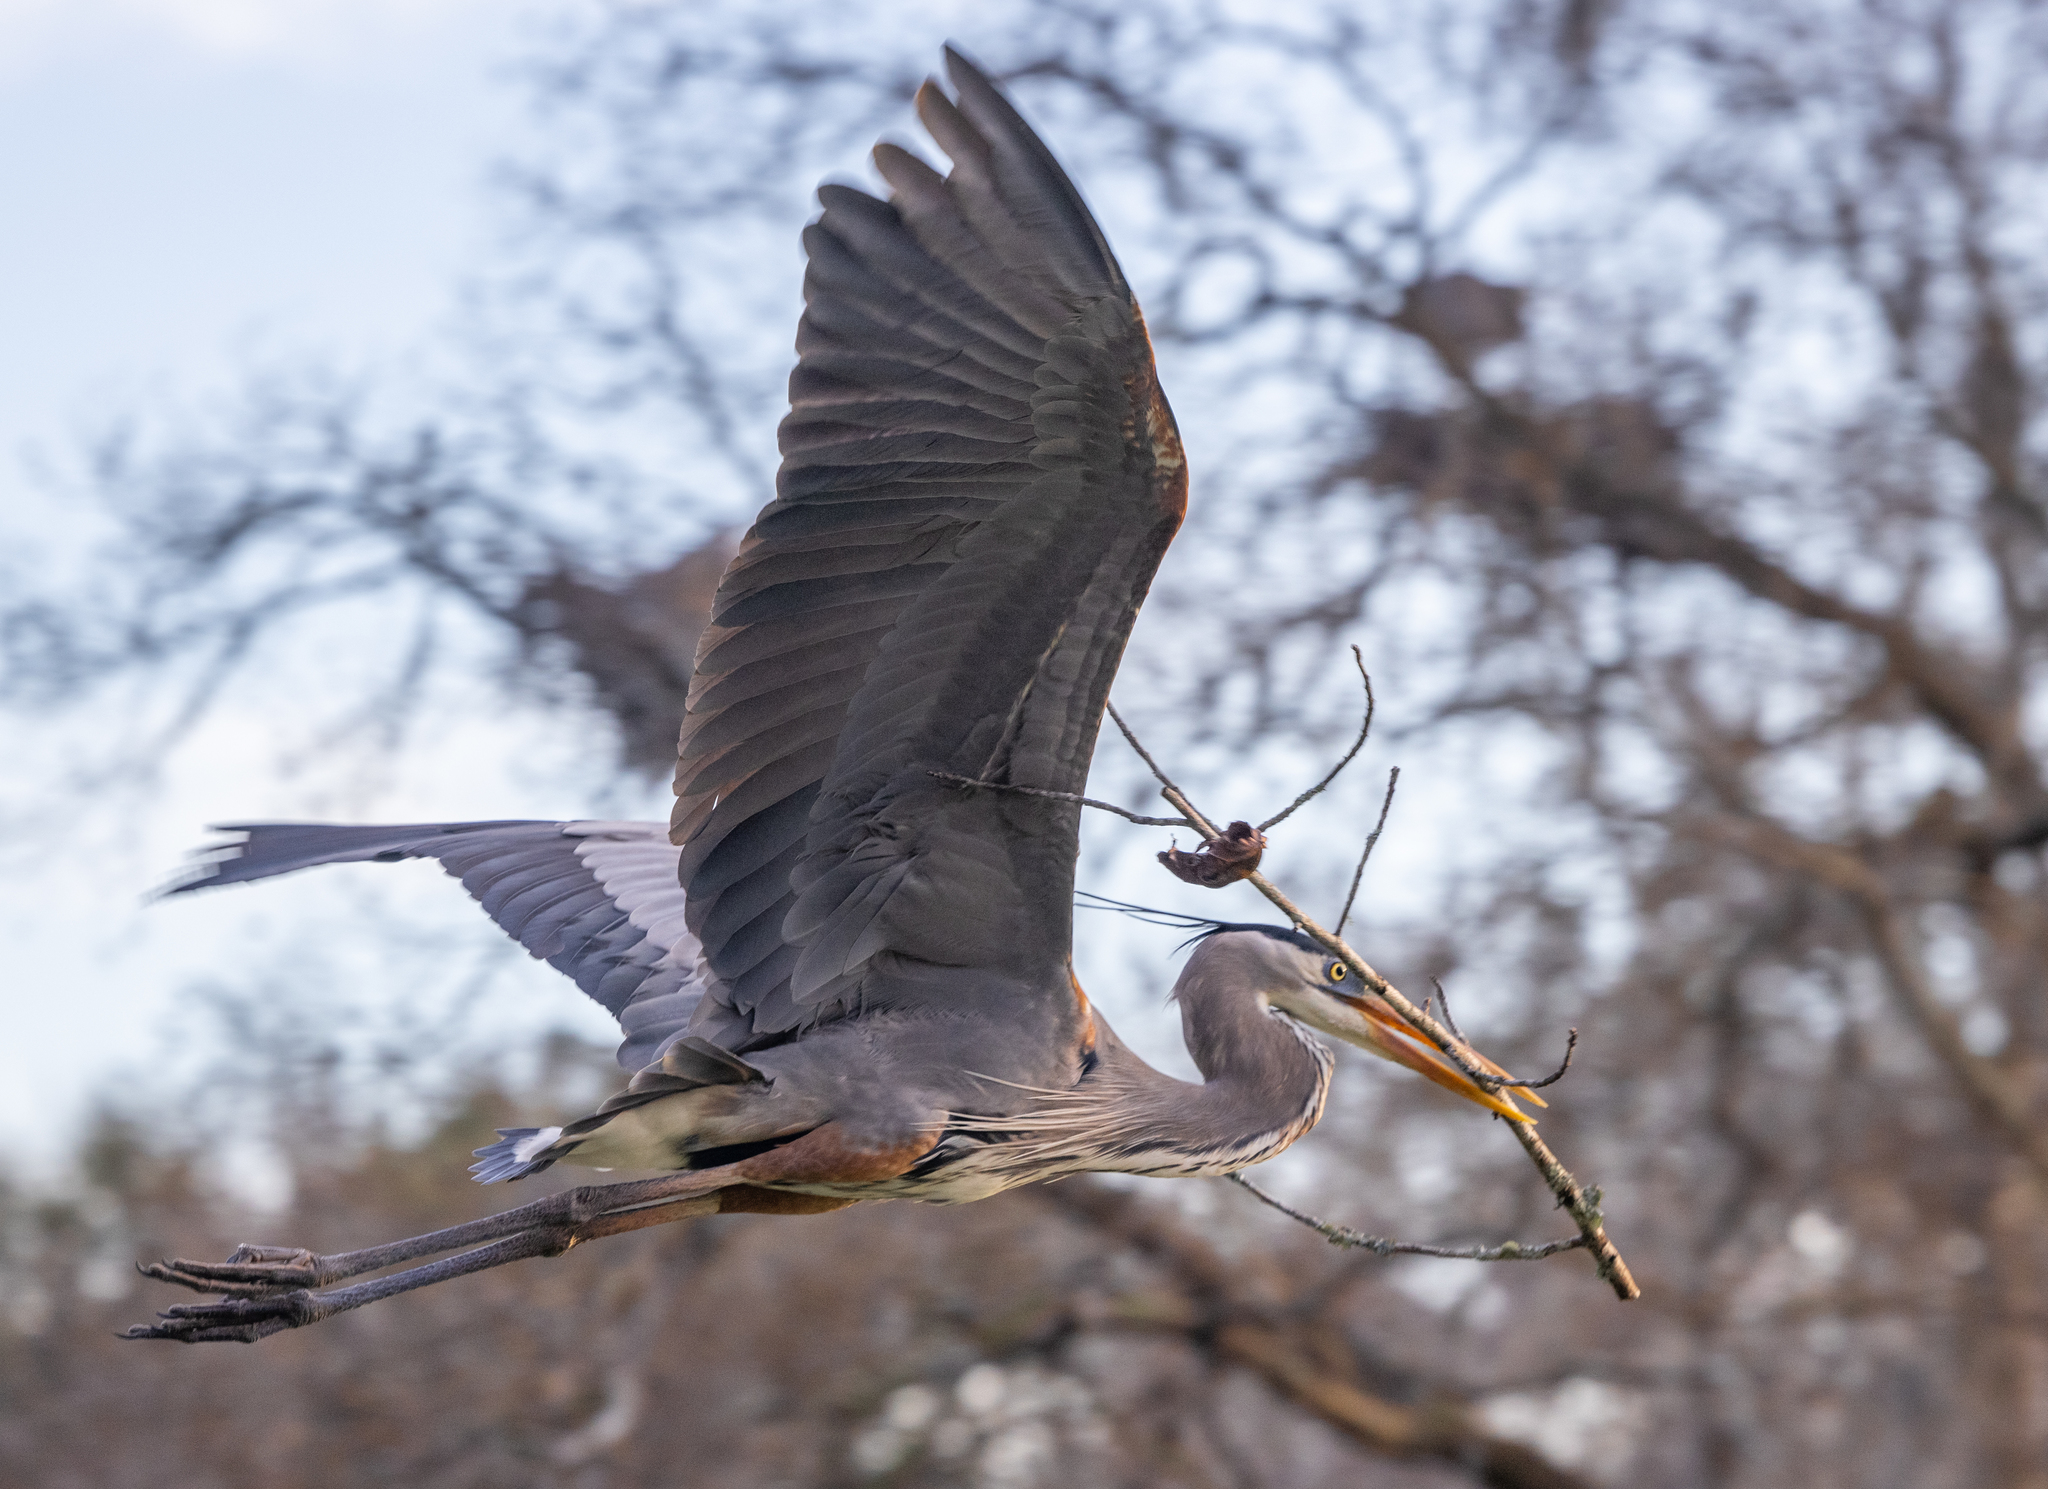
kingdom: Animalia
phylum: Chordata
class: Aves
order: Pelecaniformes
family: Ardeidae
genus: Ardea
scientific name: Ardea herodias
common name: Great blue heron
